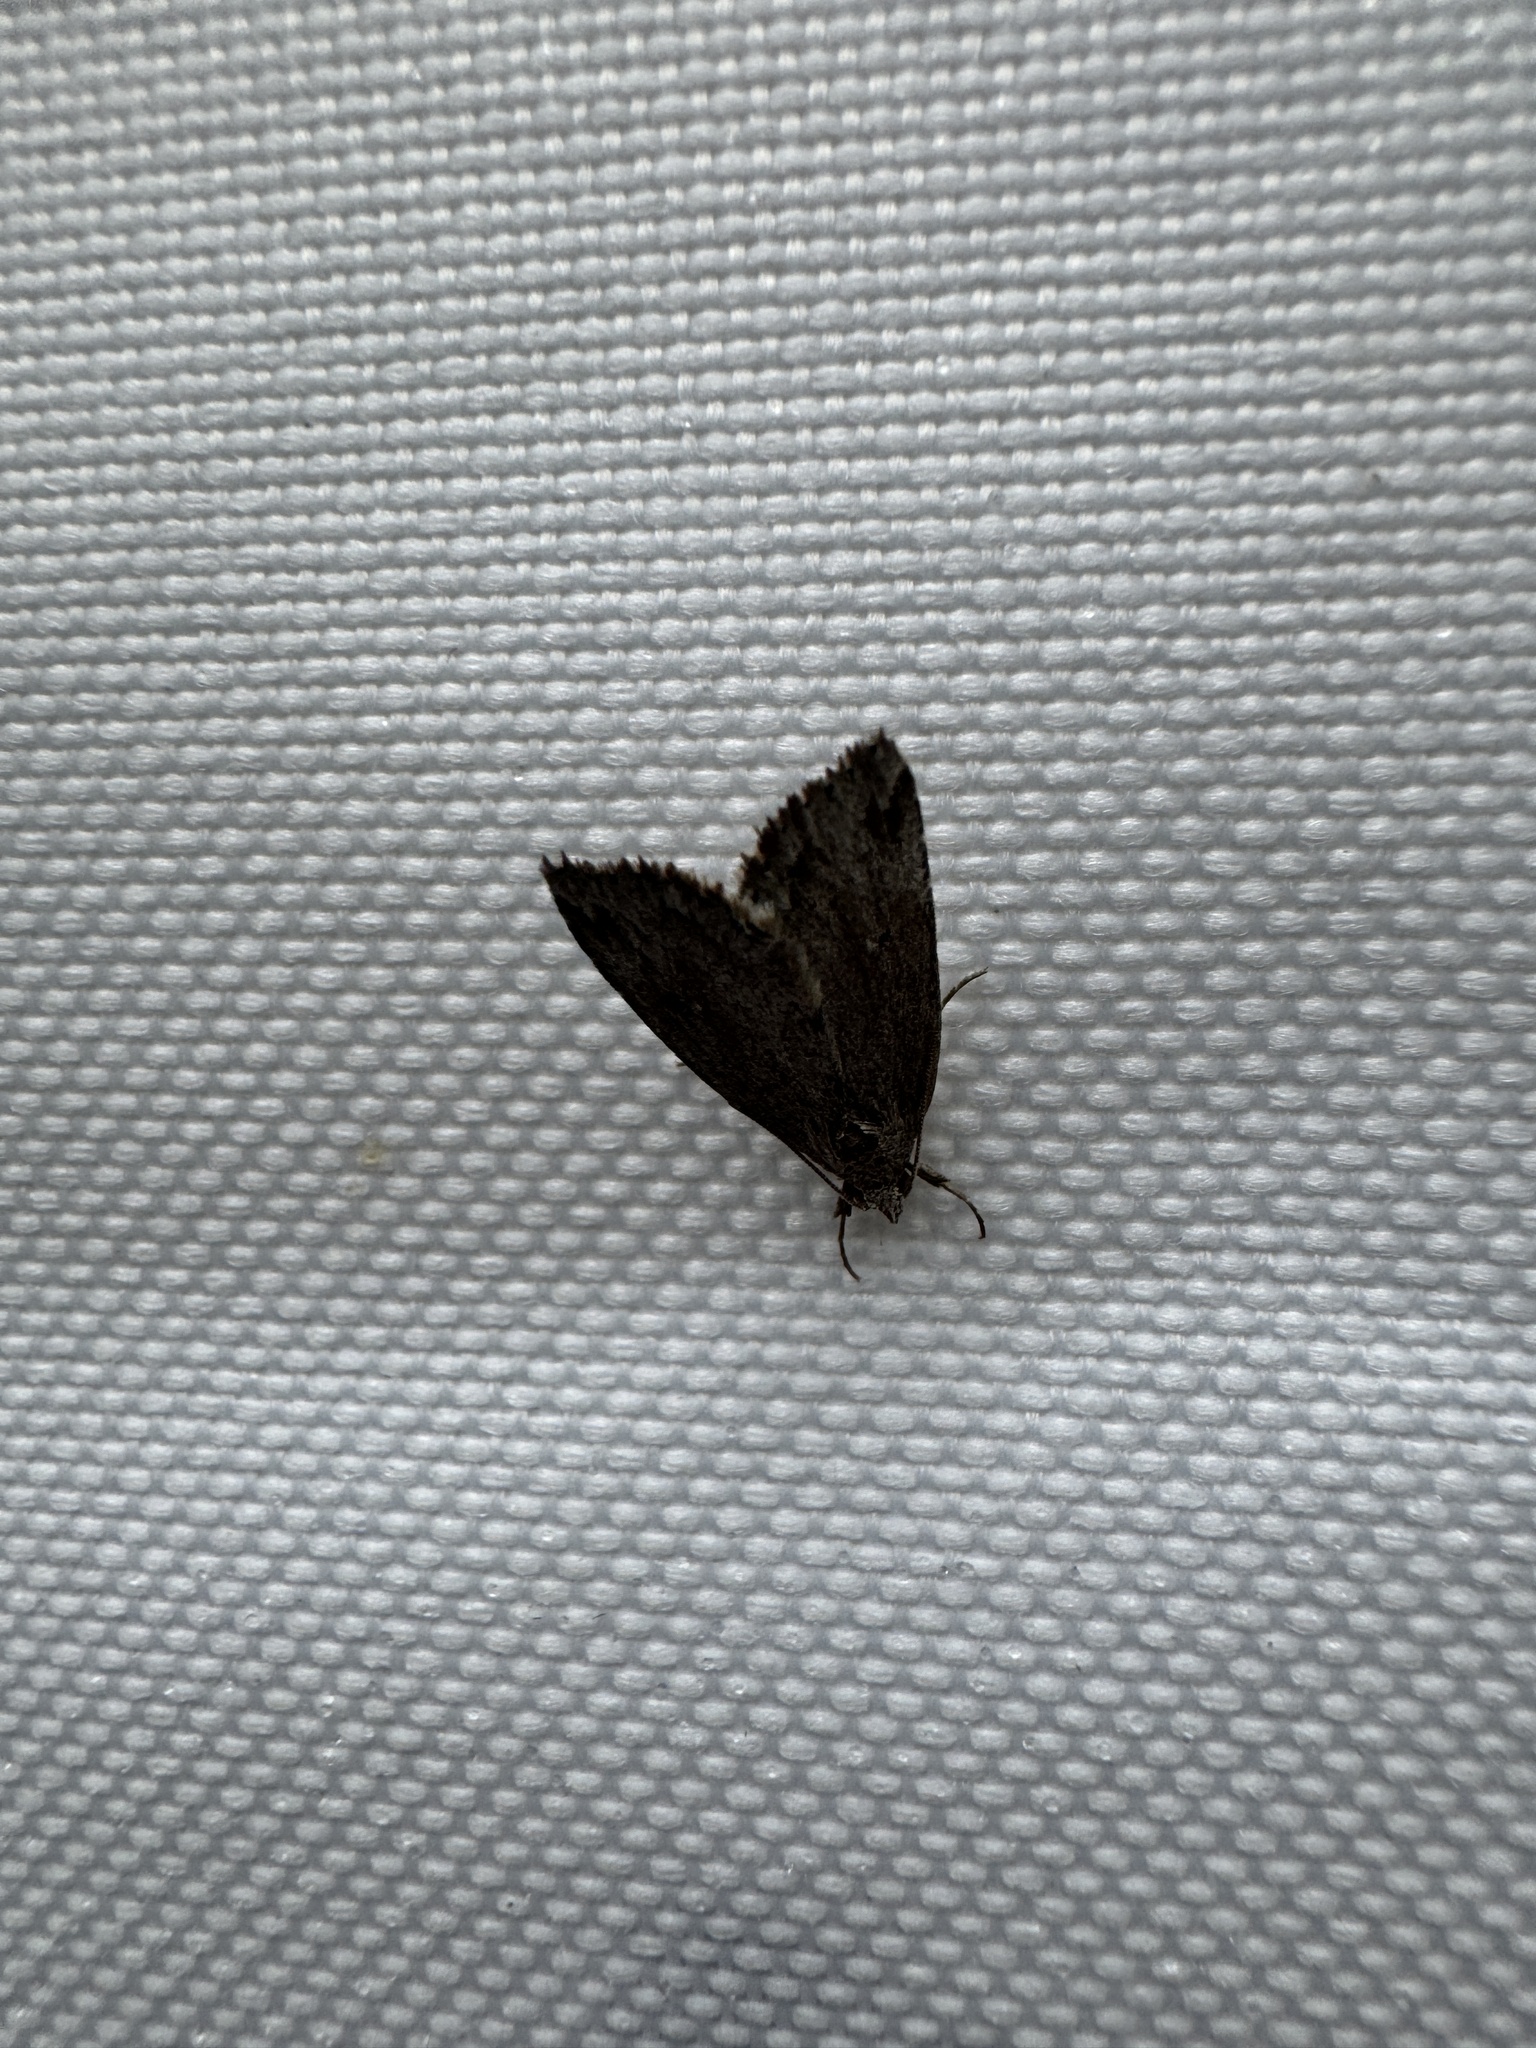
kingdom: Animalia
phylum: Arthropoda
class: Insecta
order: Lepidoptera
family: Erebidae
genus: Cutina
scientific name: Cutina arcuata
